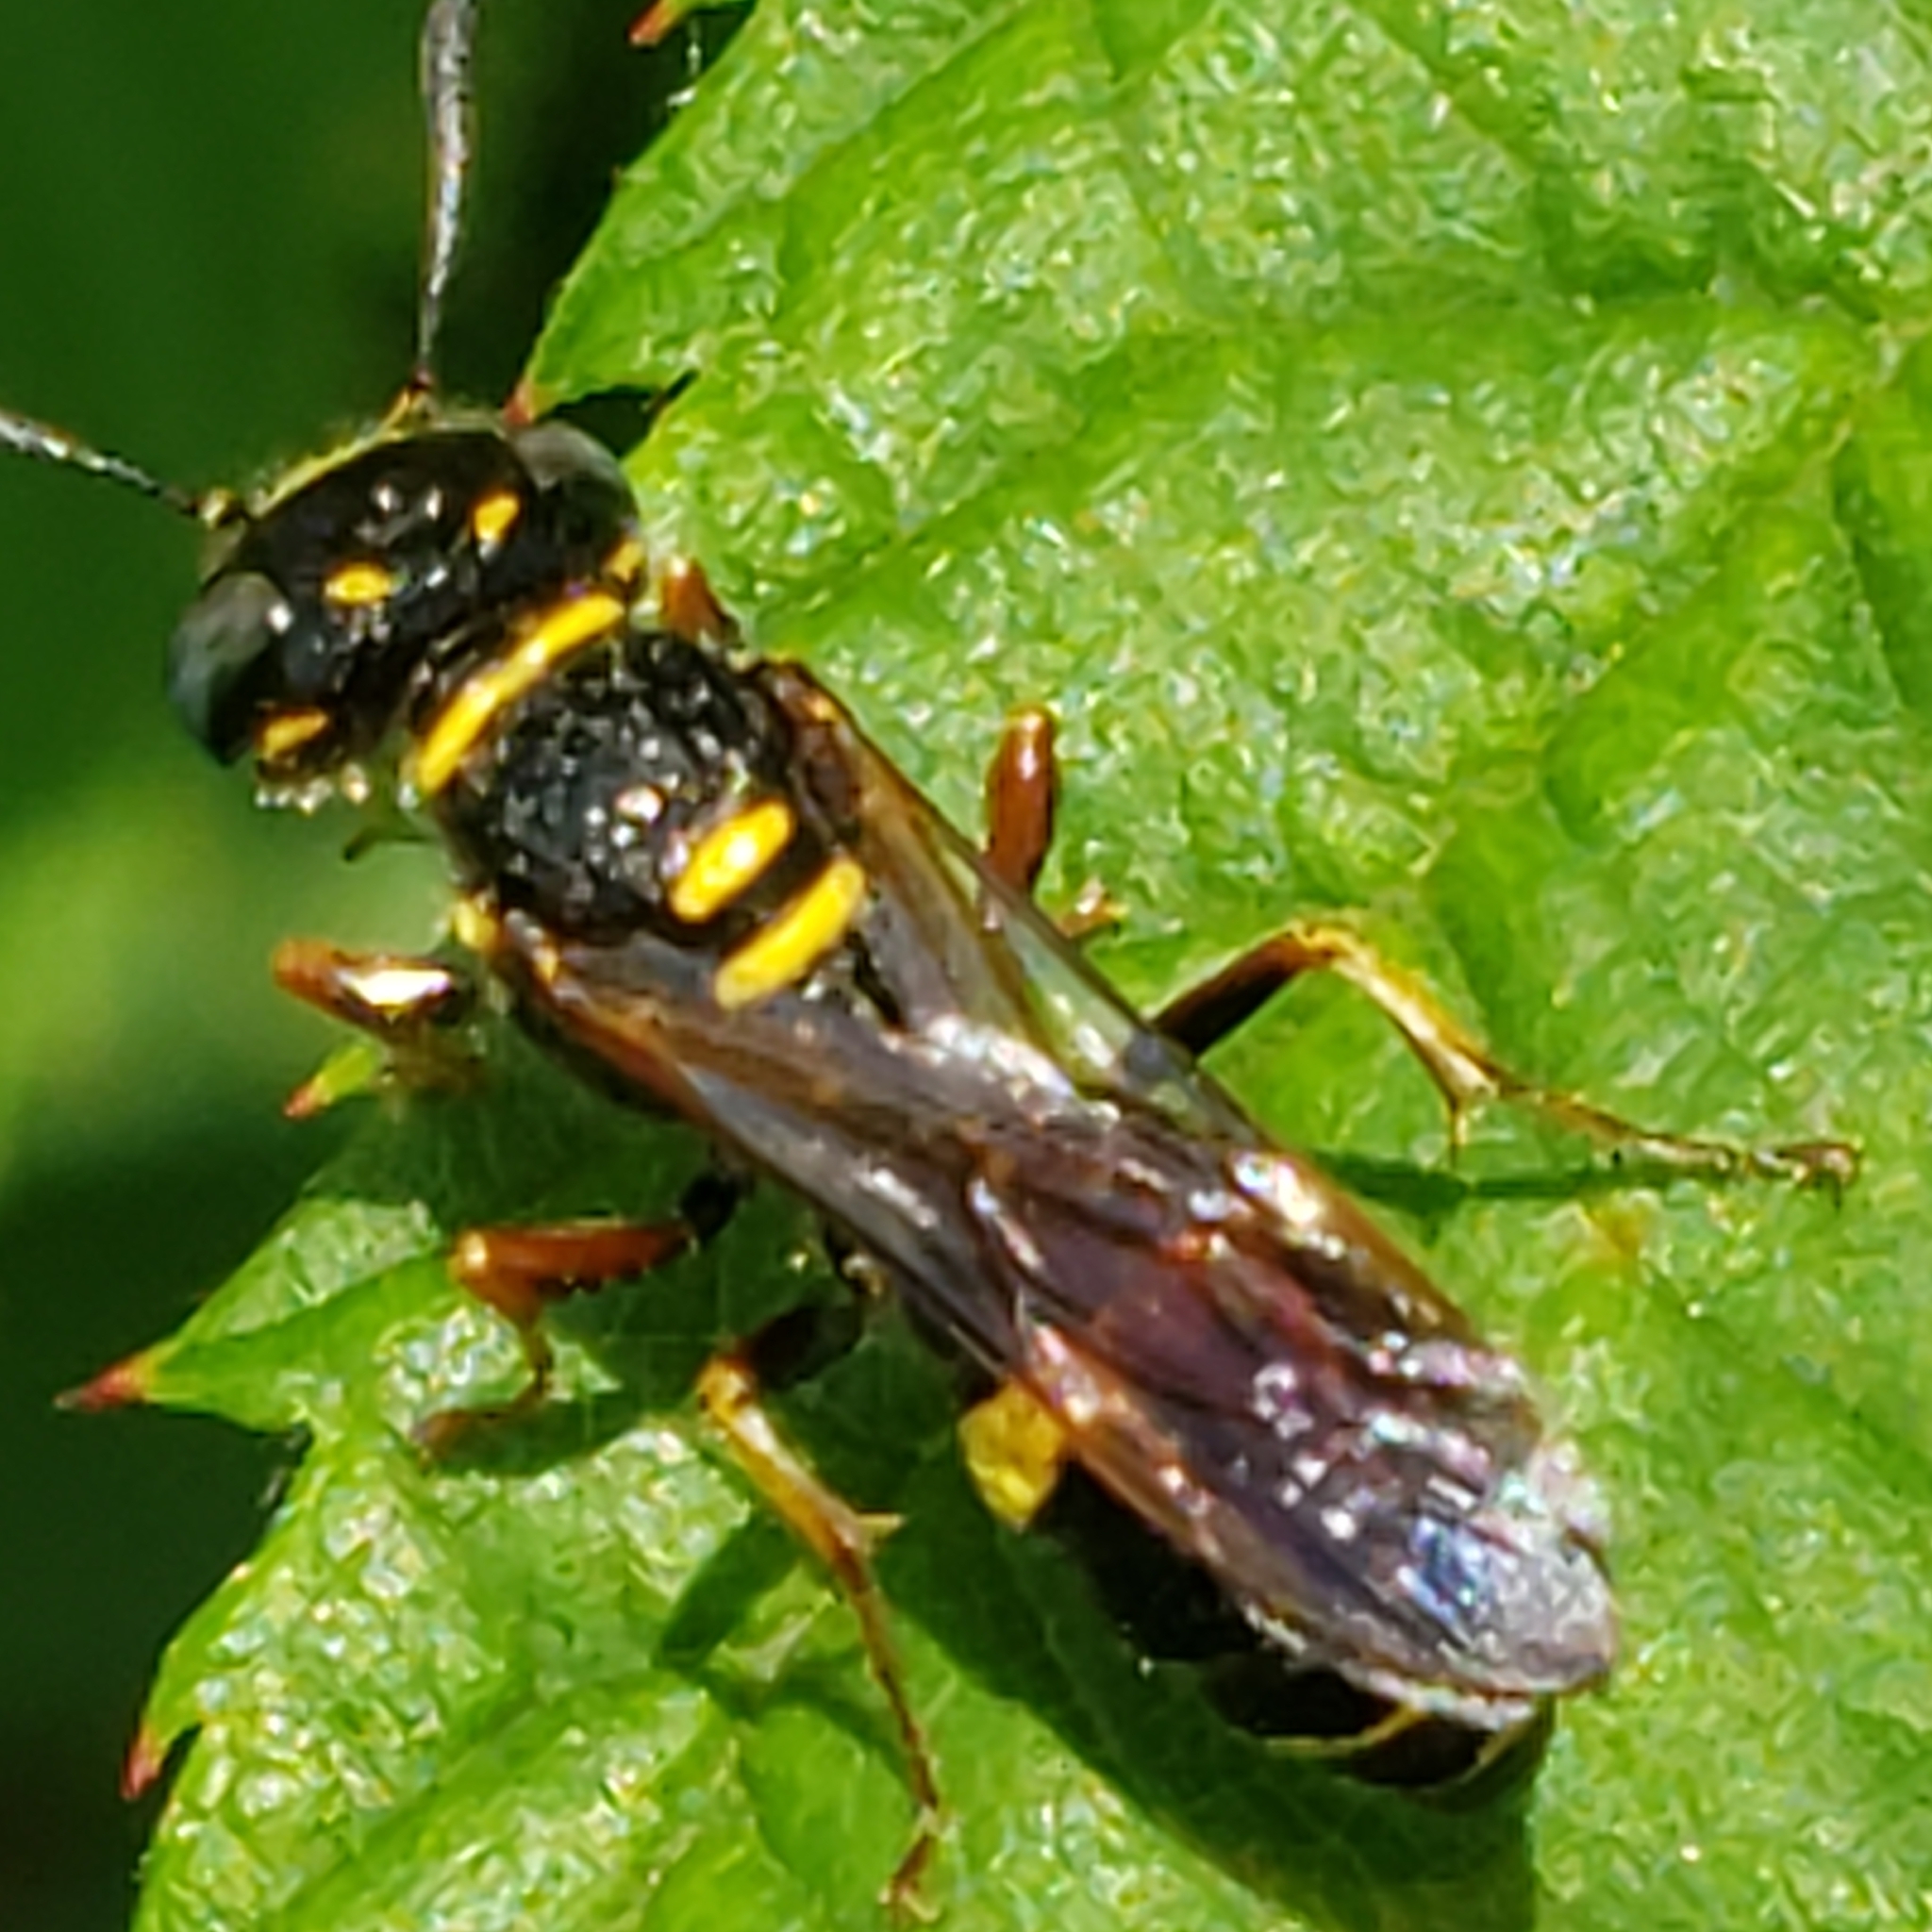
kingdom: Animalia
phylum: Arthropoda
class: Insecta
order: Hymenoptera
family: Crabronidae
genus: Philanthus
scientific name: Philanthus gibbosus
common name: Humped beewolf
